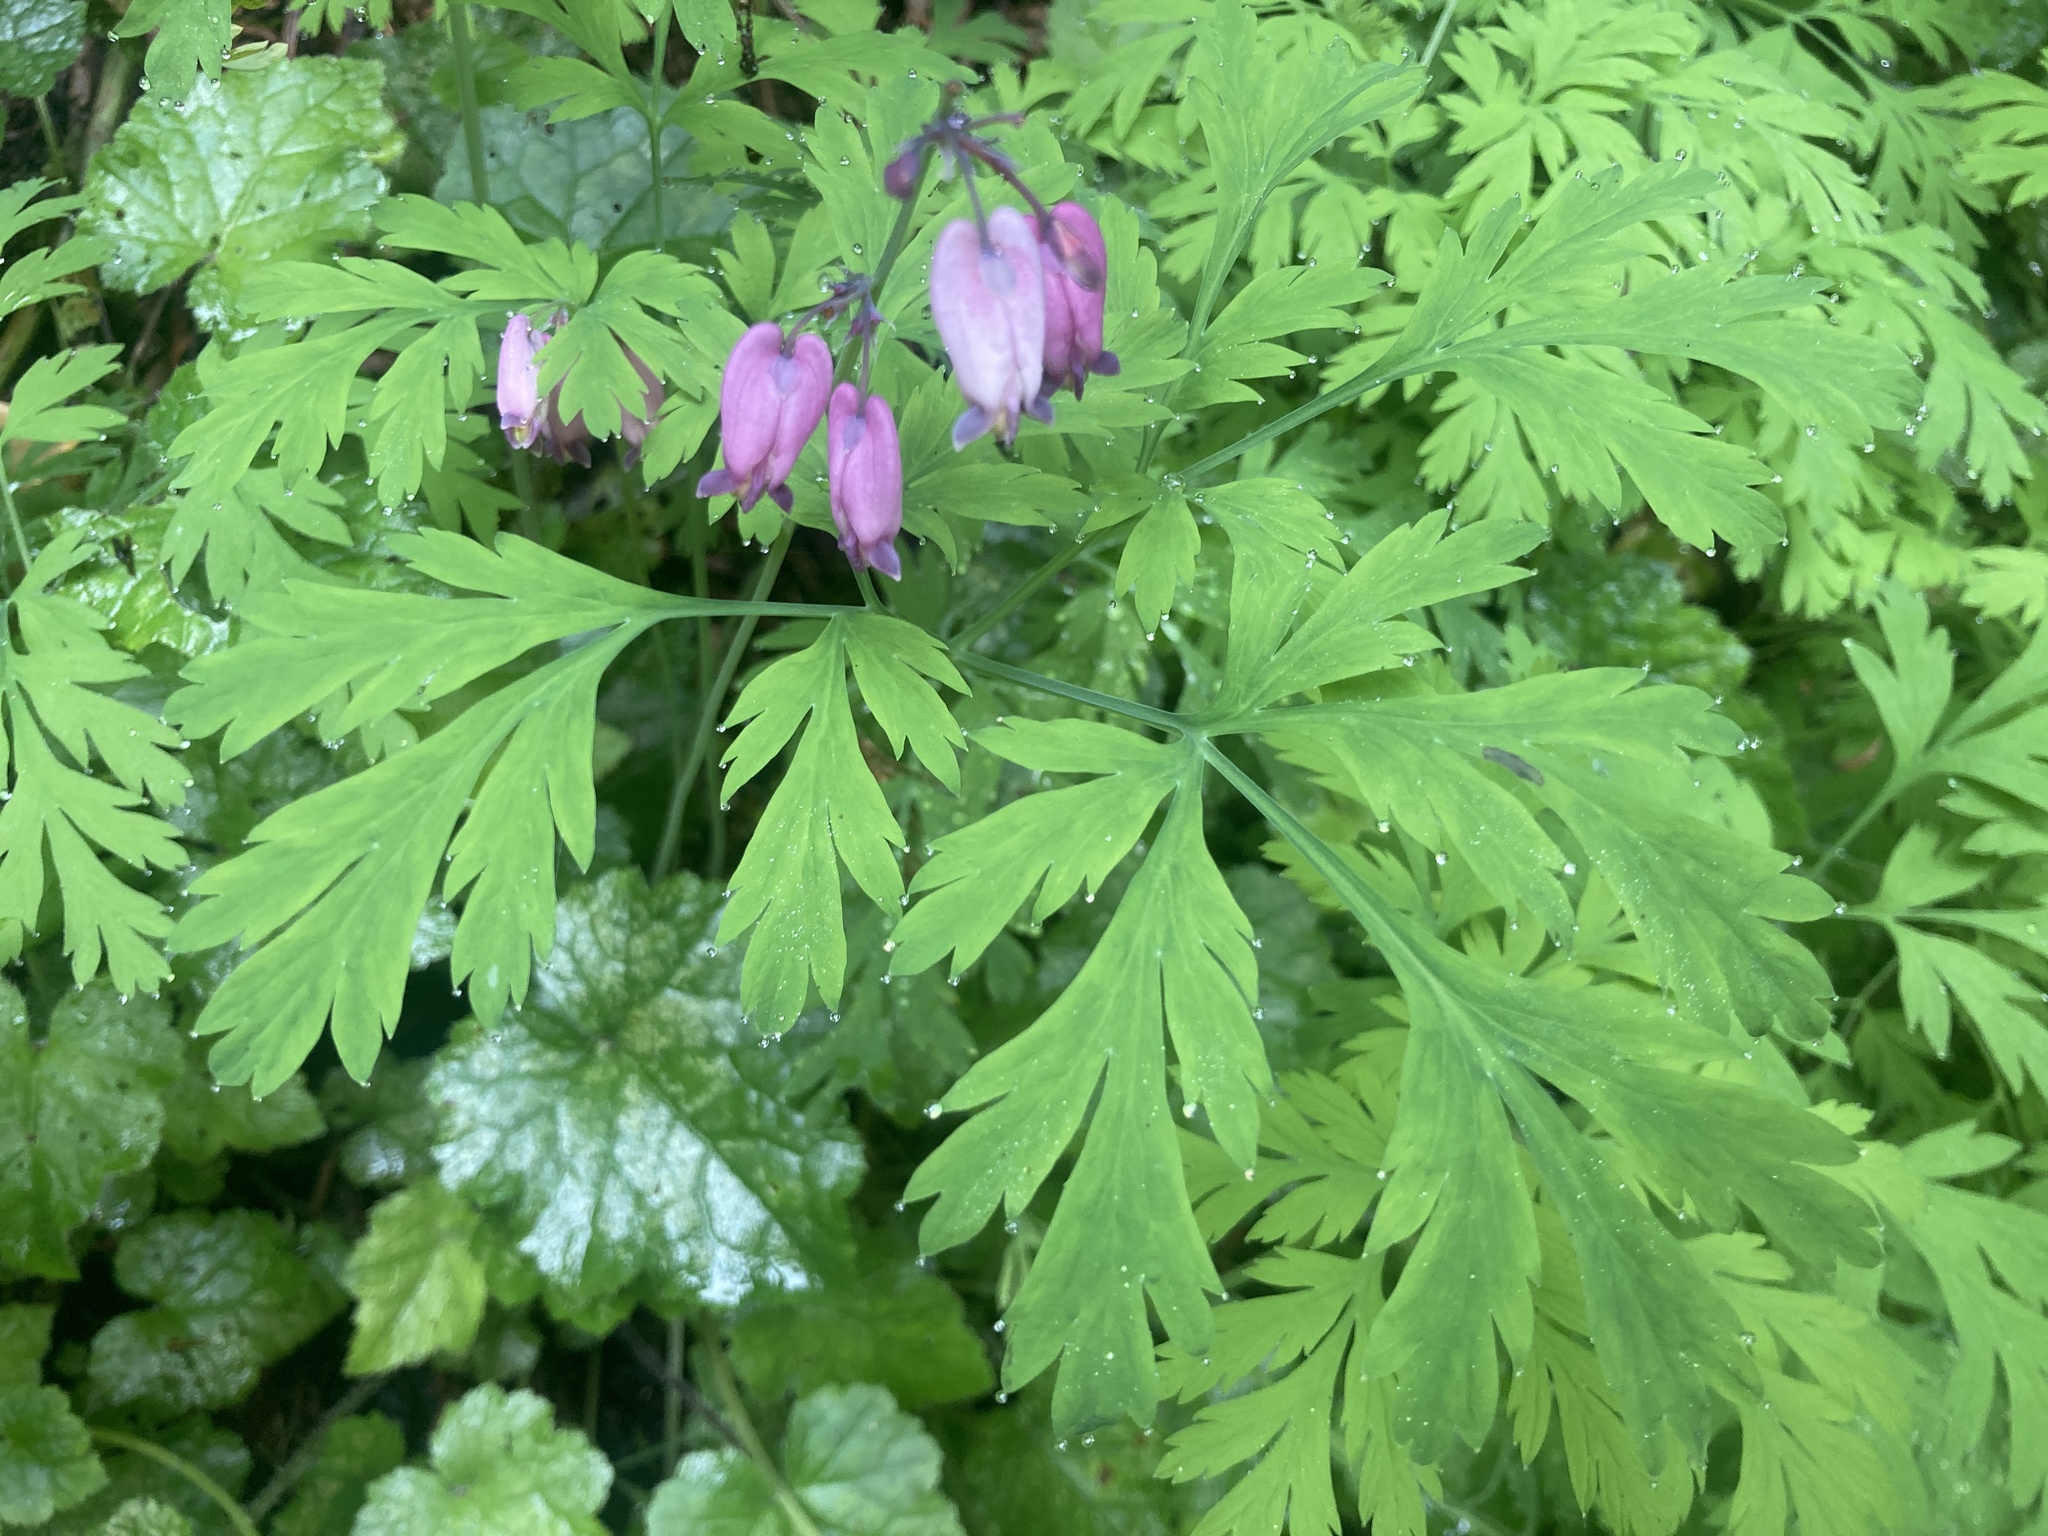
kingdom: Plantae
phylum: Tracheophyta
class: Magnoliopsida
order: Ranunculales
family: Papaveraceae
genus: Dicentra
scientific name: Dicentra formosa
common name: Bleeding-heart
